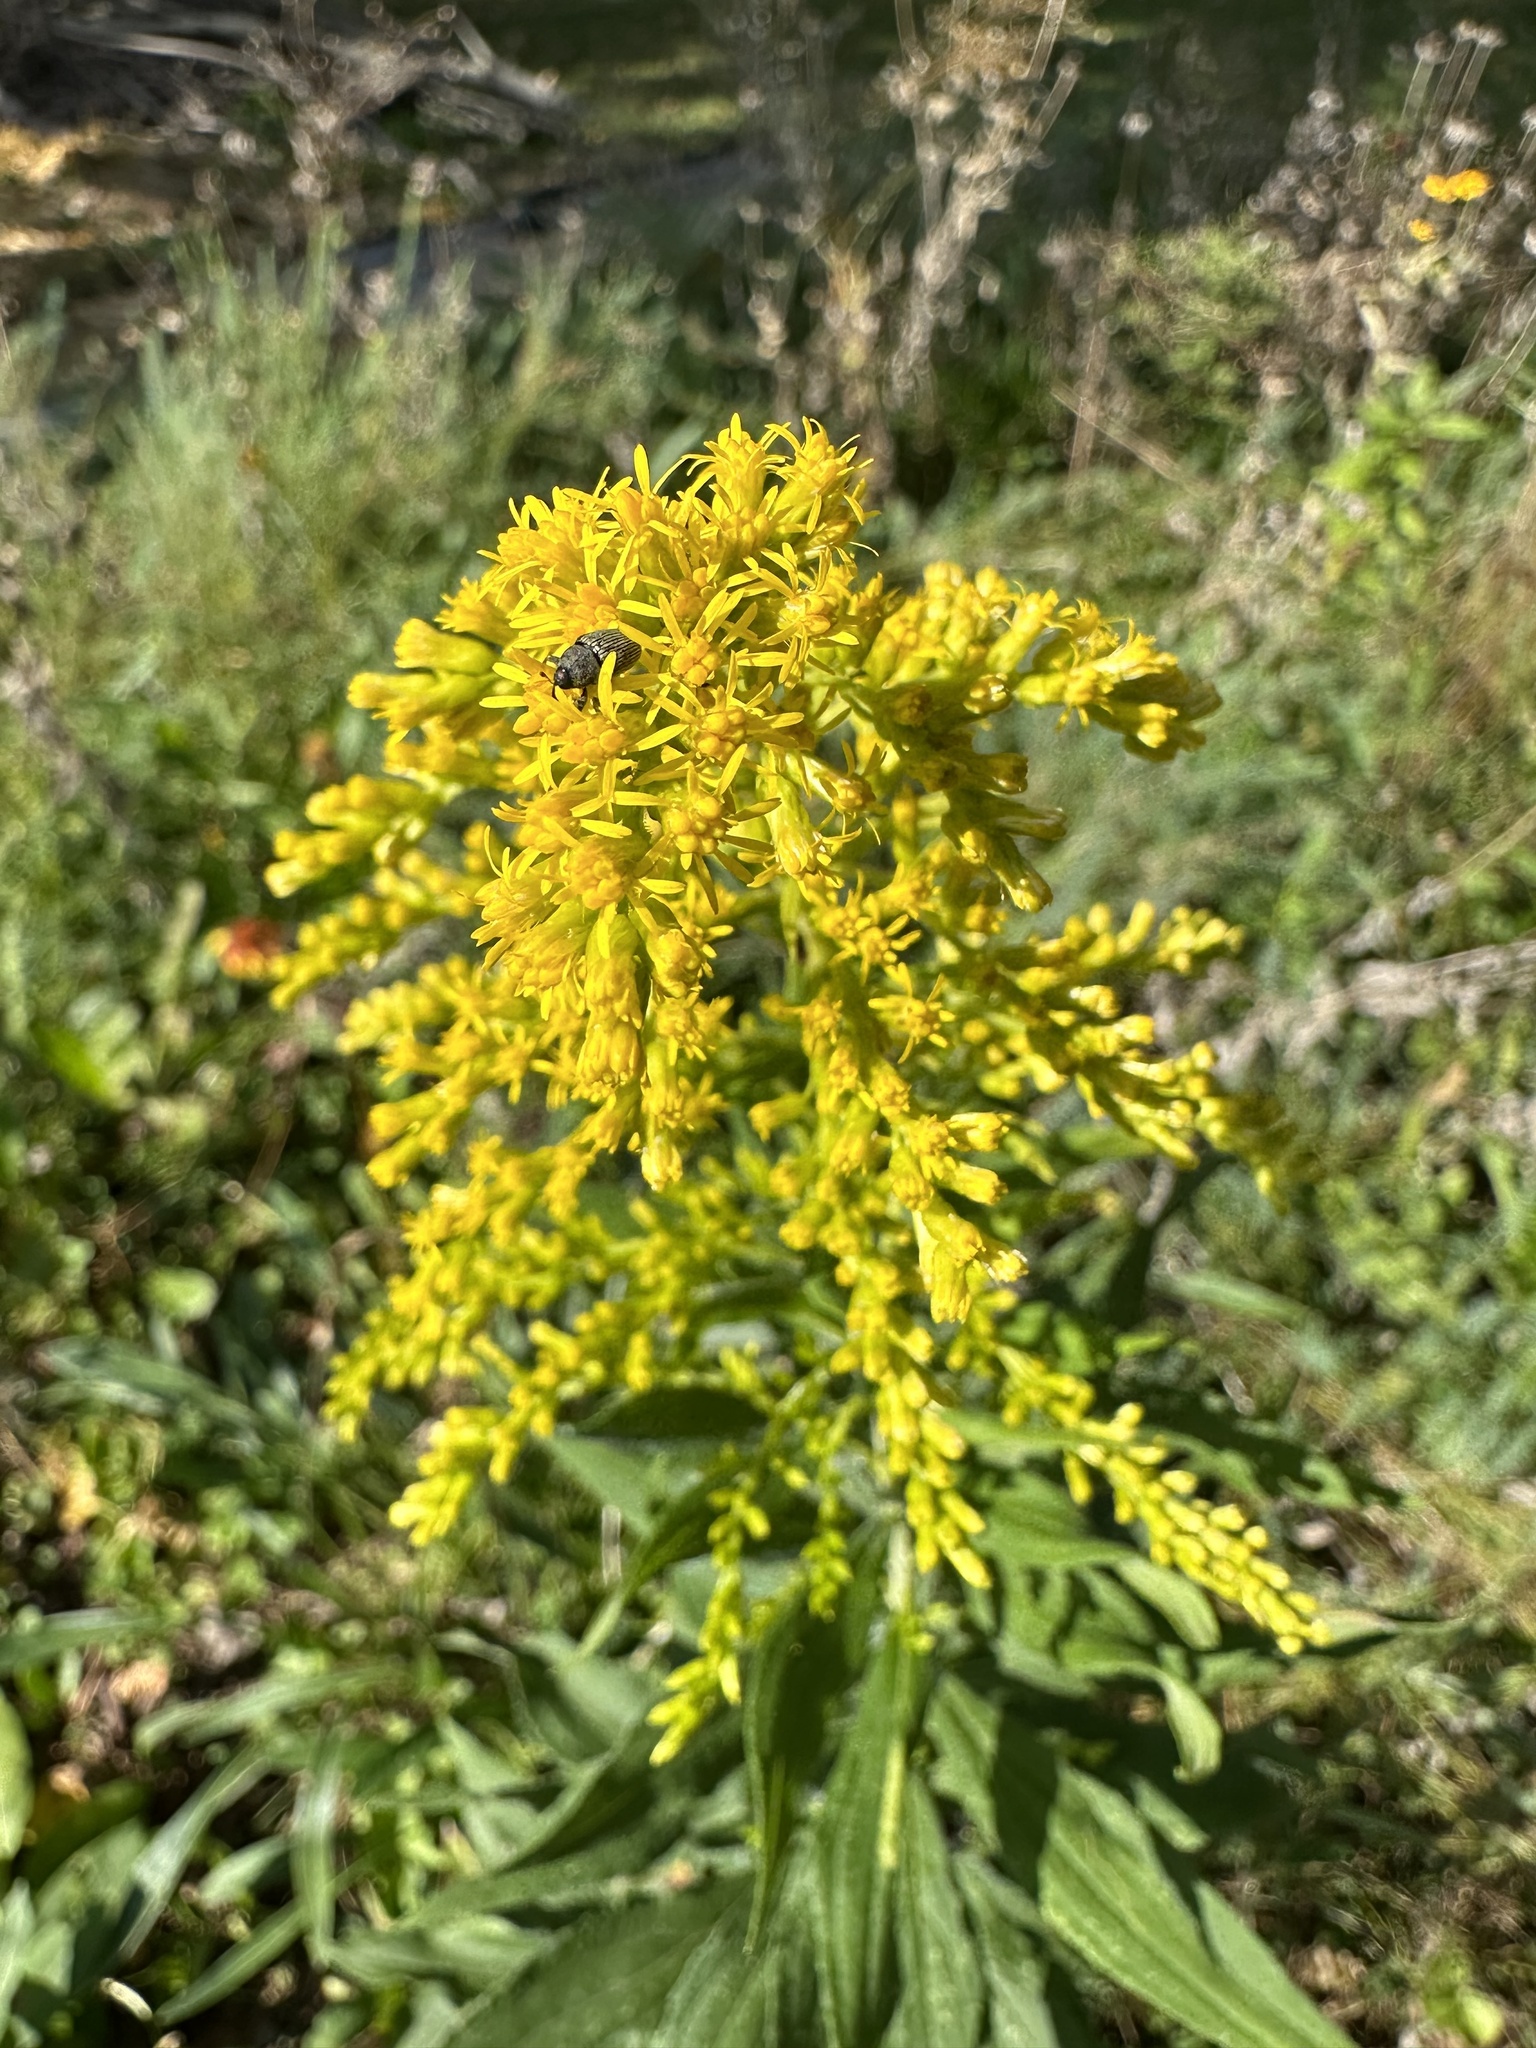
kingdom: Plantae
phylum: Tracheophyta
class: Magnoliopsida
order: Asterales
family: Asteraceae
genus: Solidago
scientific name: Solidago altissima
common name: Late goldenrod
